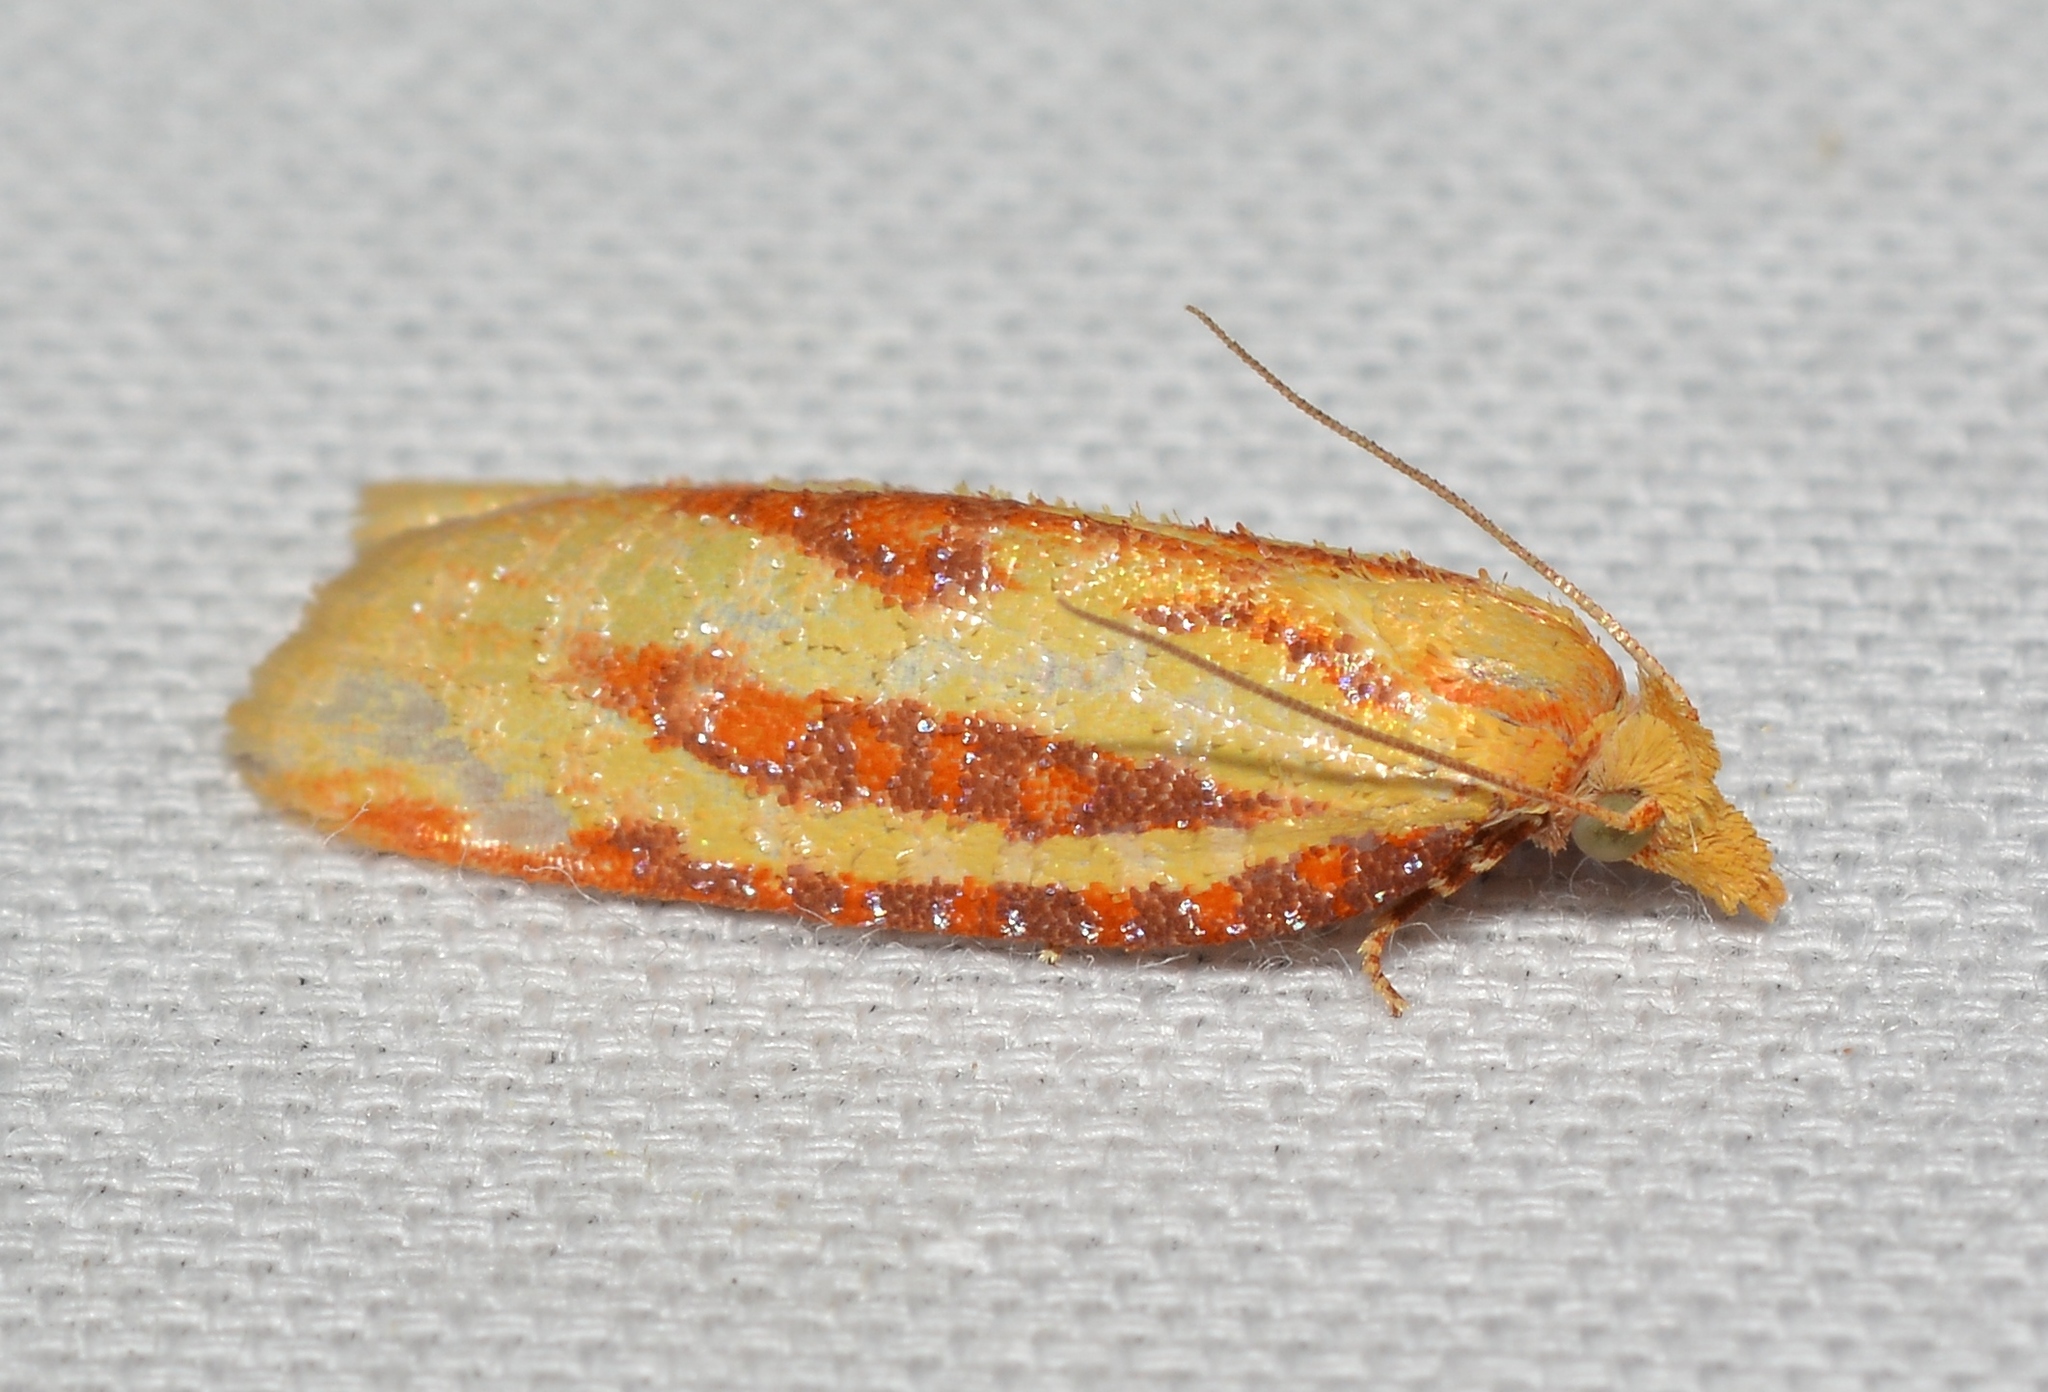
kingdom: Animalia
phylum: Arthropoda
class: Insecta
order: Lepidoptera
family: Tortricidae
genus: Sparganothis
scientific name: Sparganothis tristriata
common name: Three-streaked sparganothis moth
